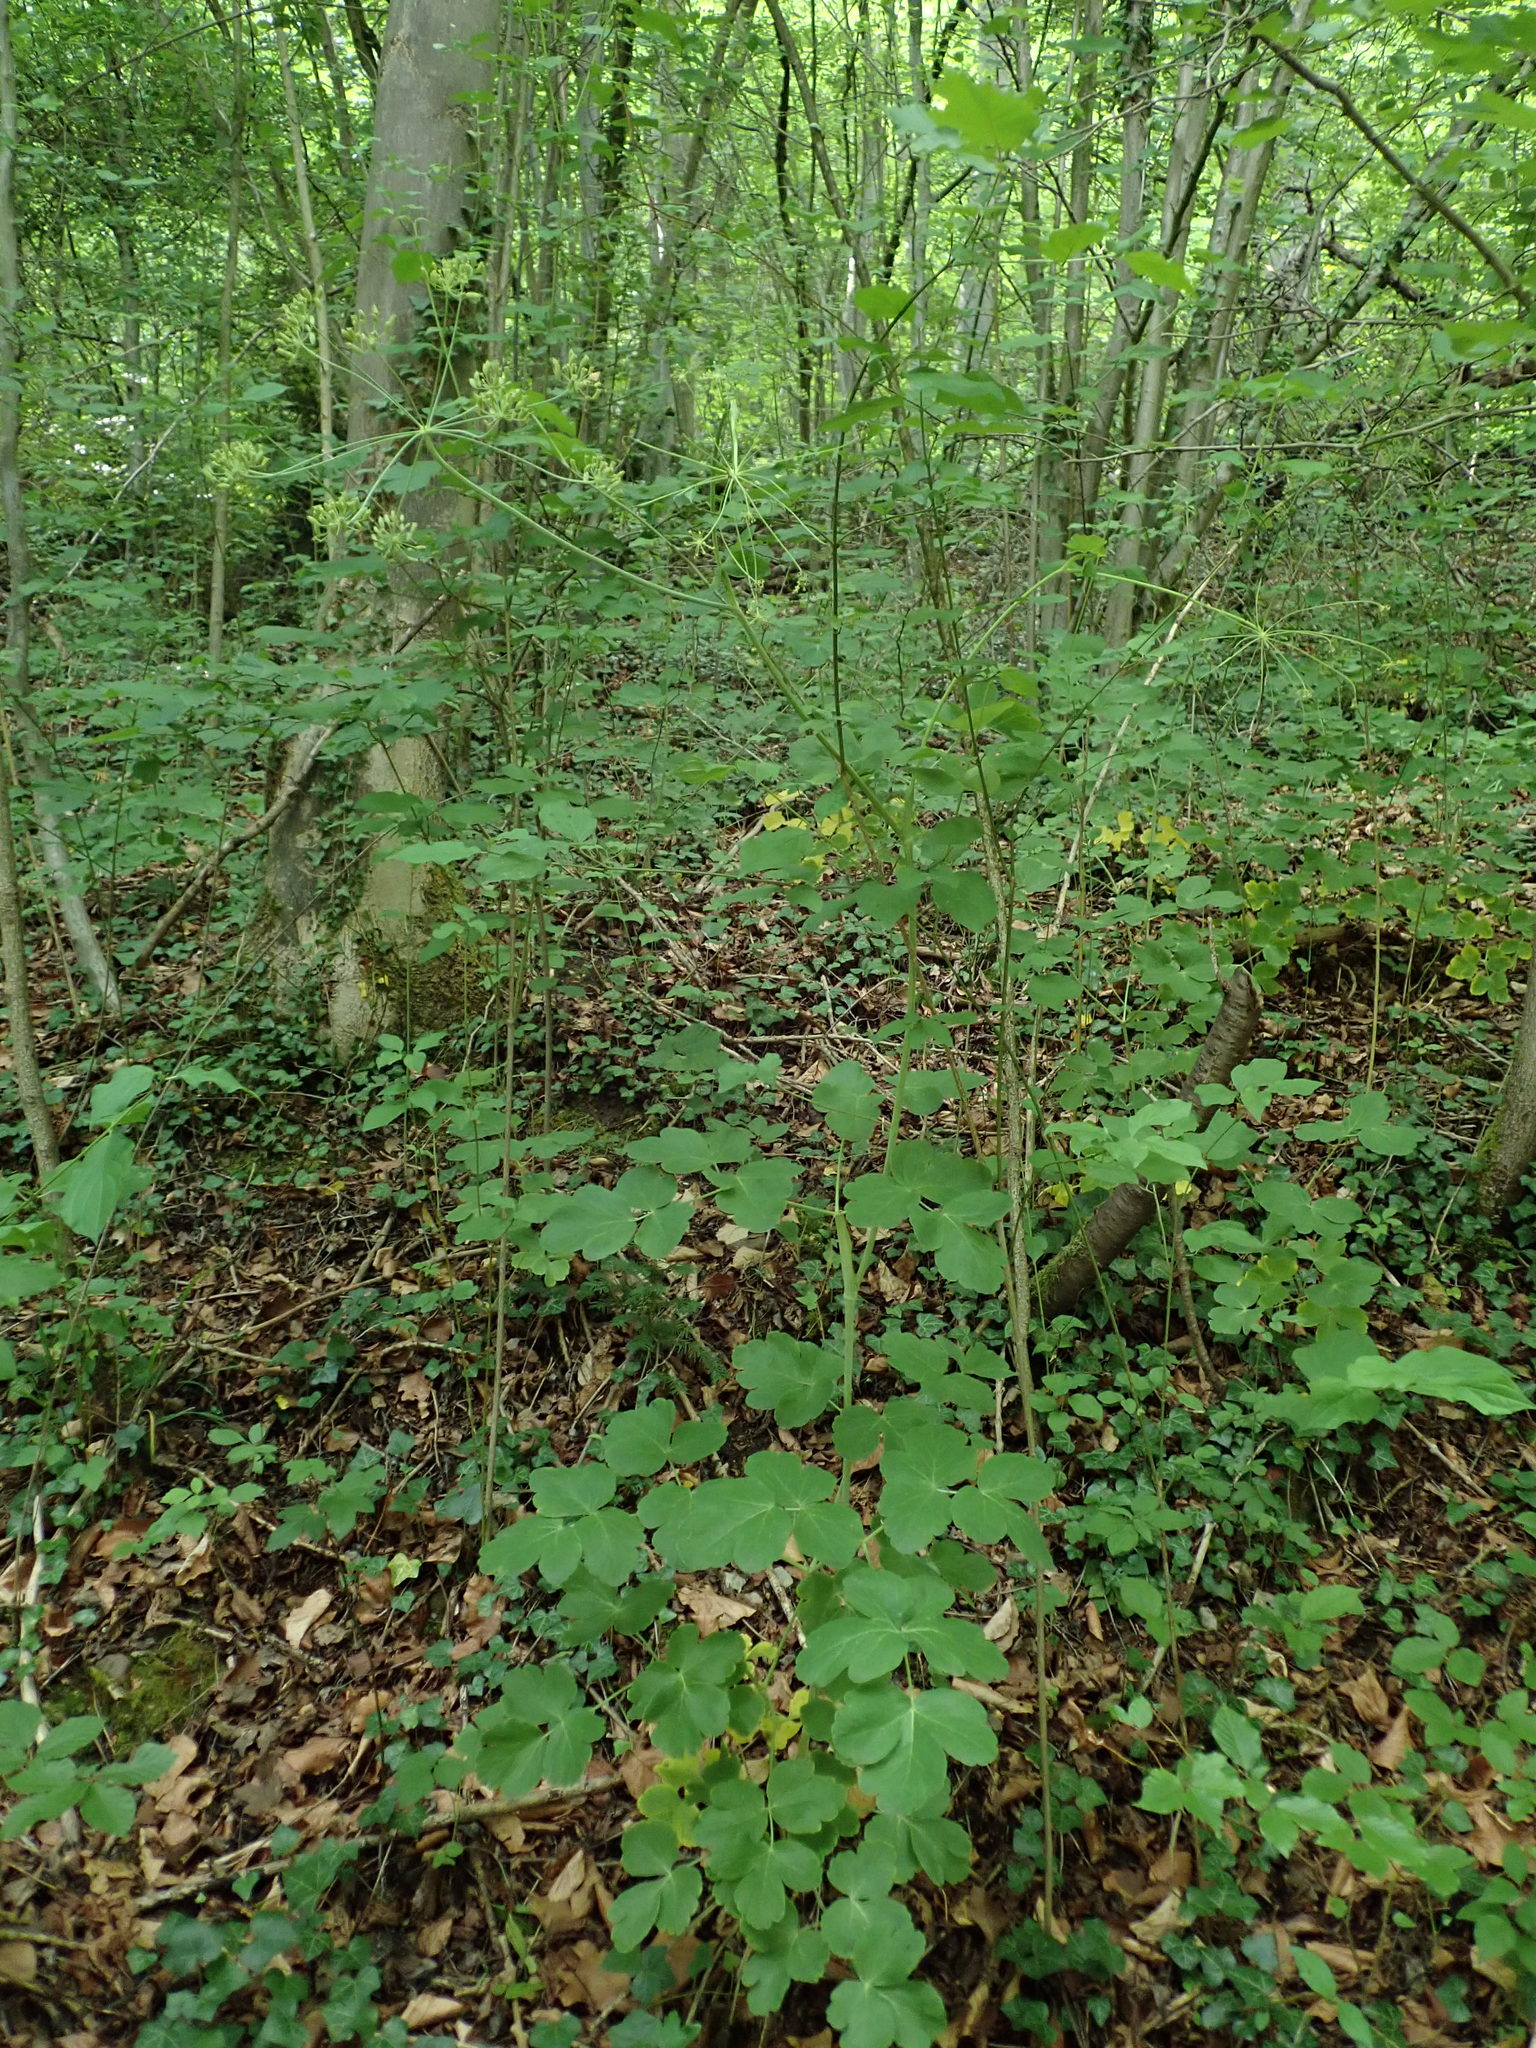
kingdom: Plantae
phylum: Tracheophyta
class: Magnoliopsida
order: Apiales
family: Apiaceae
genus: Laser
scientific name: Laser trilobum
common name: Laser
